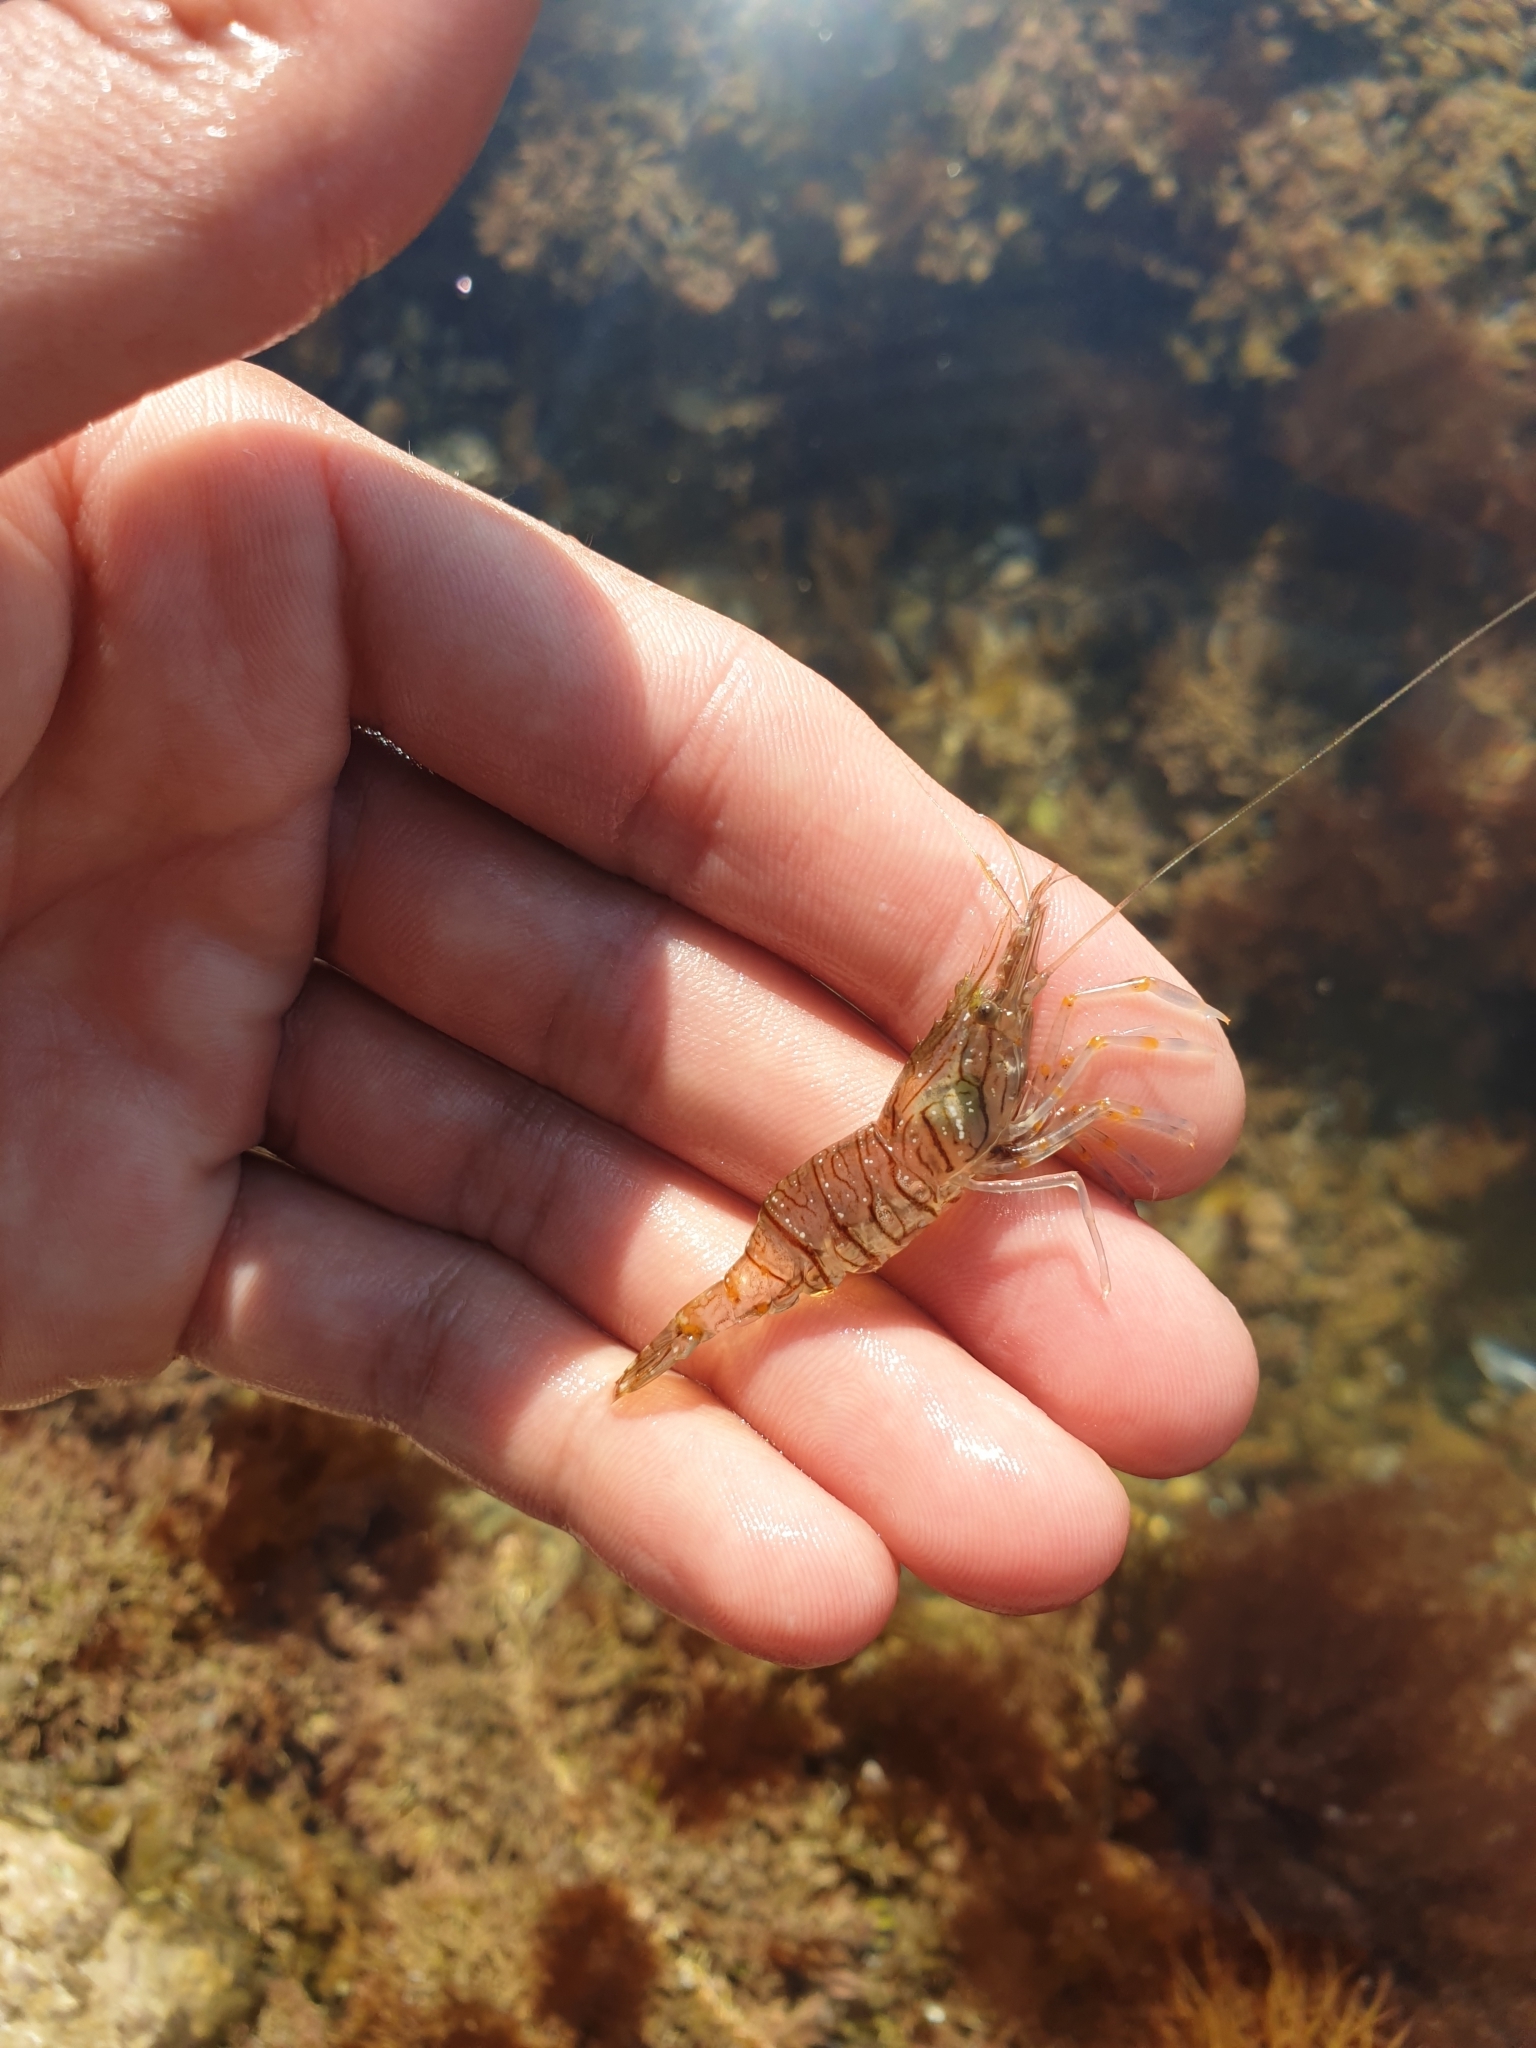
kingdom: Animalia
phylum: Arthropoda
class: Malacostraca
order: Decapoda
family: Palaemonidae
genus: Palaemon
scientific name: Palaemon elegans
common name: Grass prawm
